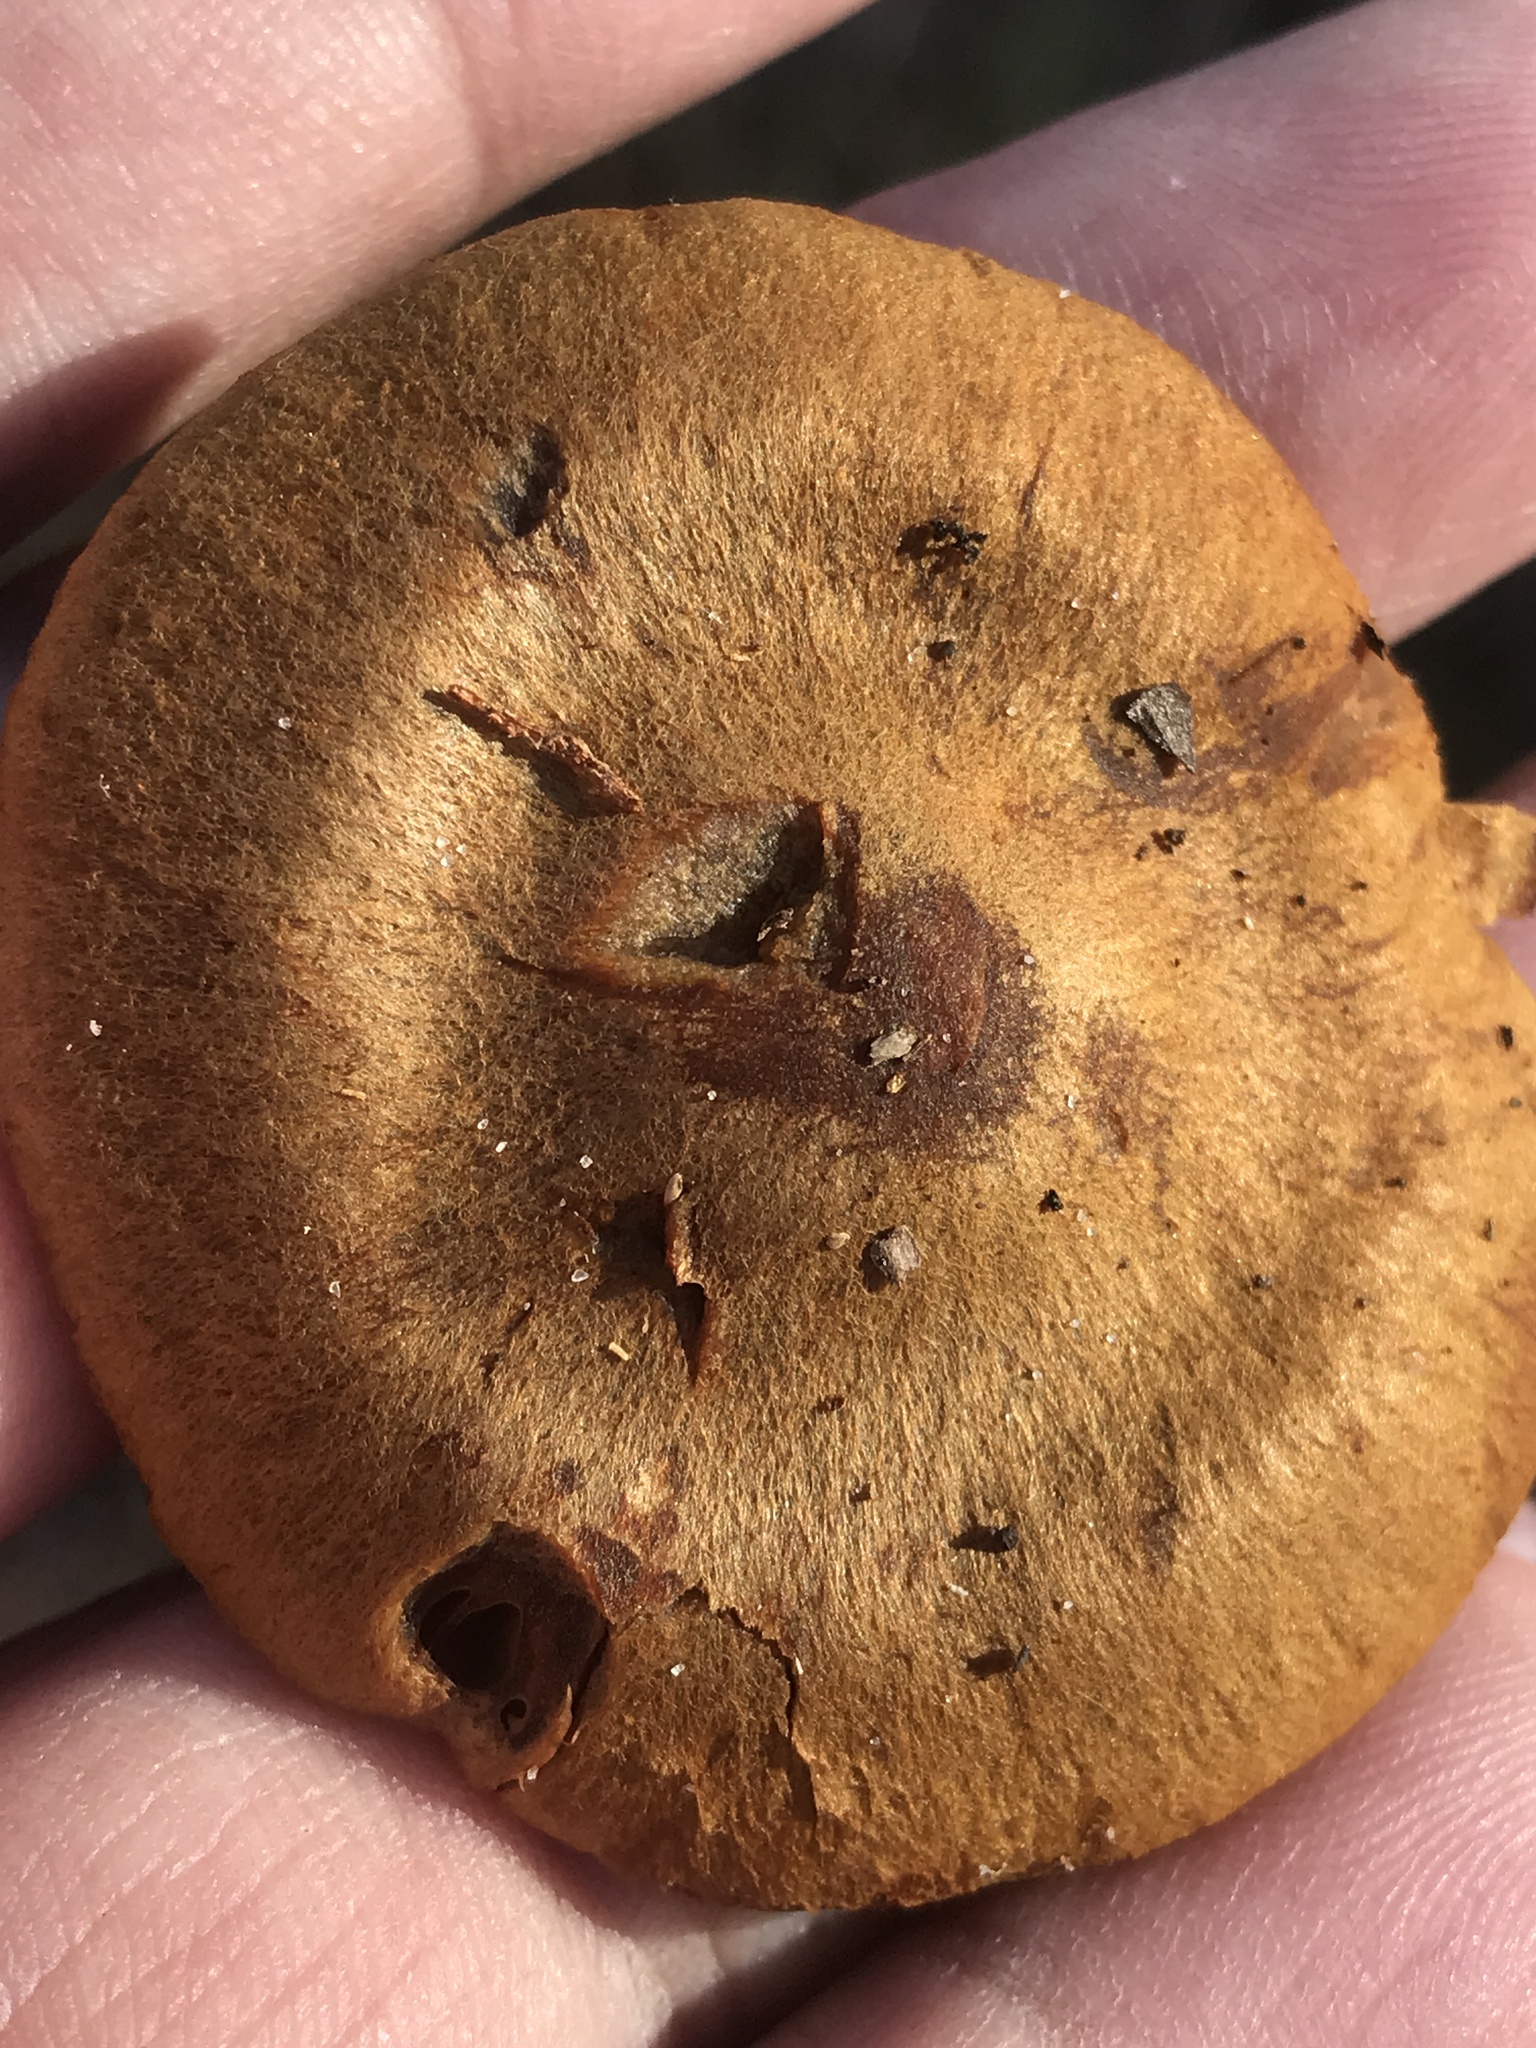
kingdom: Fungi
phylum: Basidiomycota
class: Agaricomycetes
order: Agaricales
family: Cortinariaceae
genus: Cortinarius
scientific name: Cortinarius semisanguineus
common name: Surprise webcap
